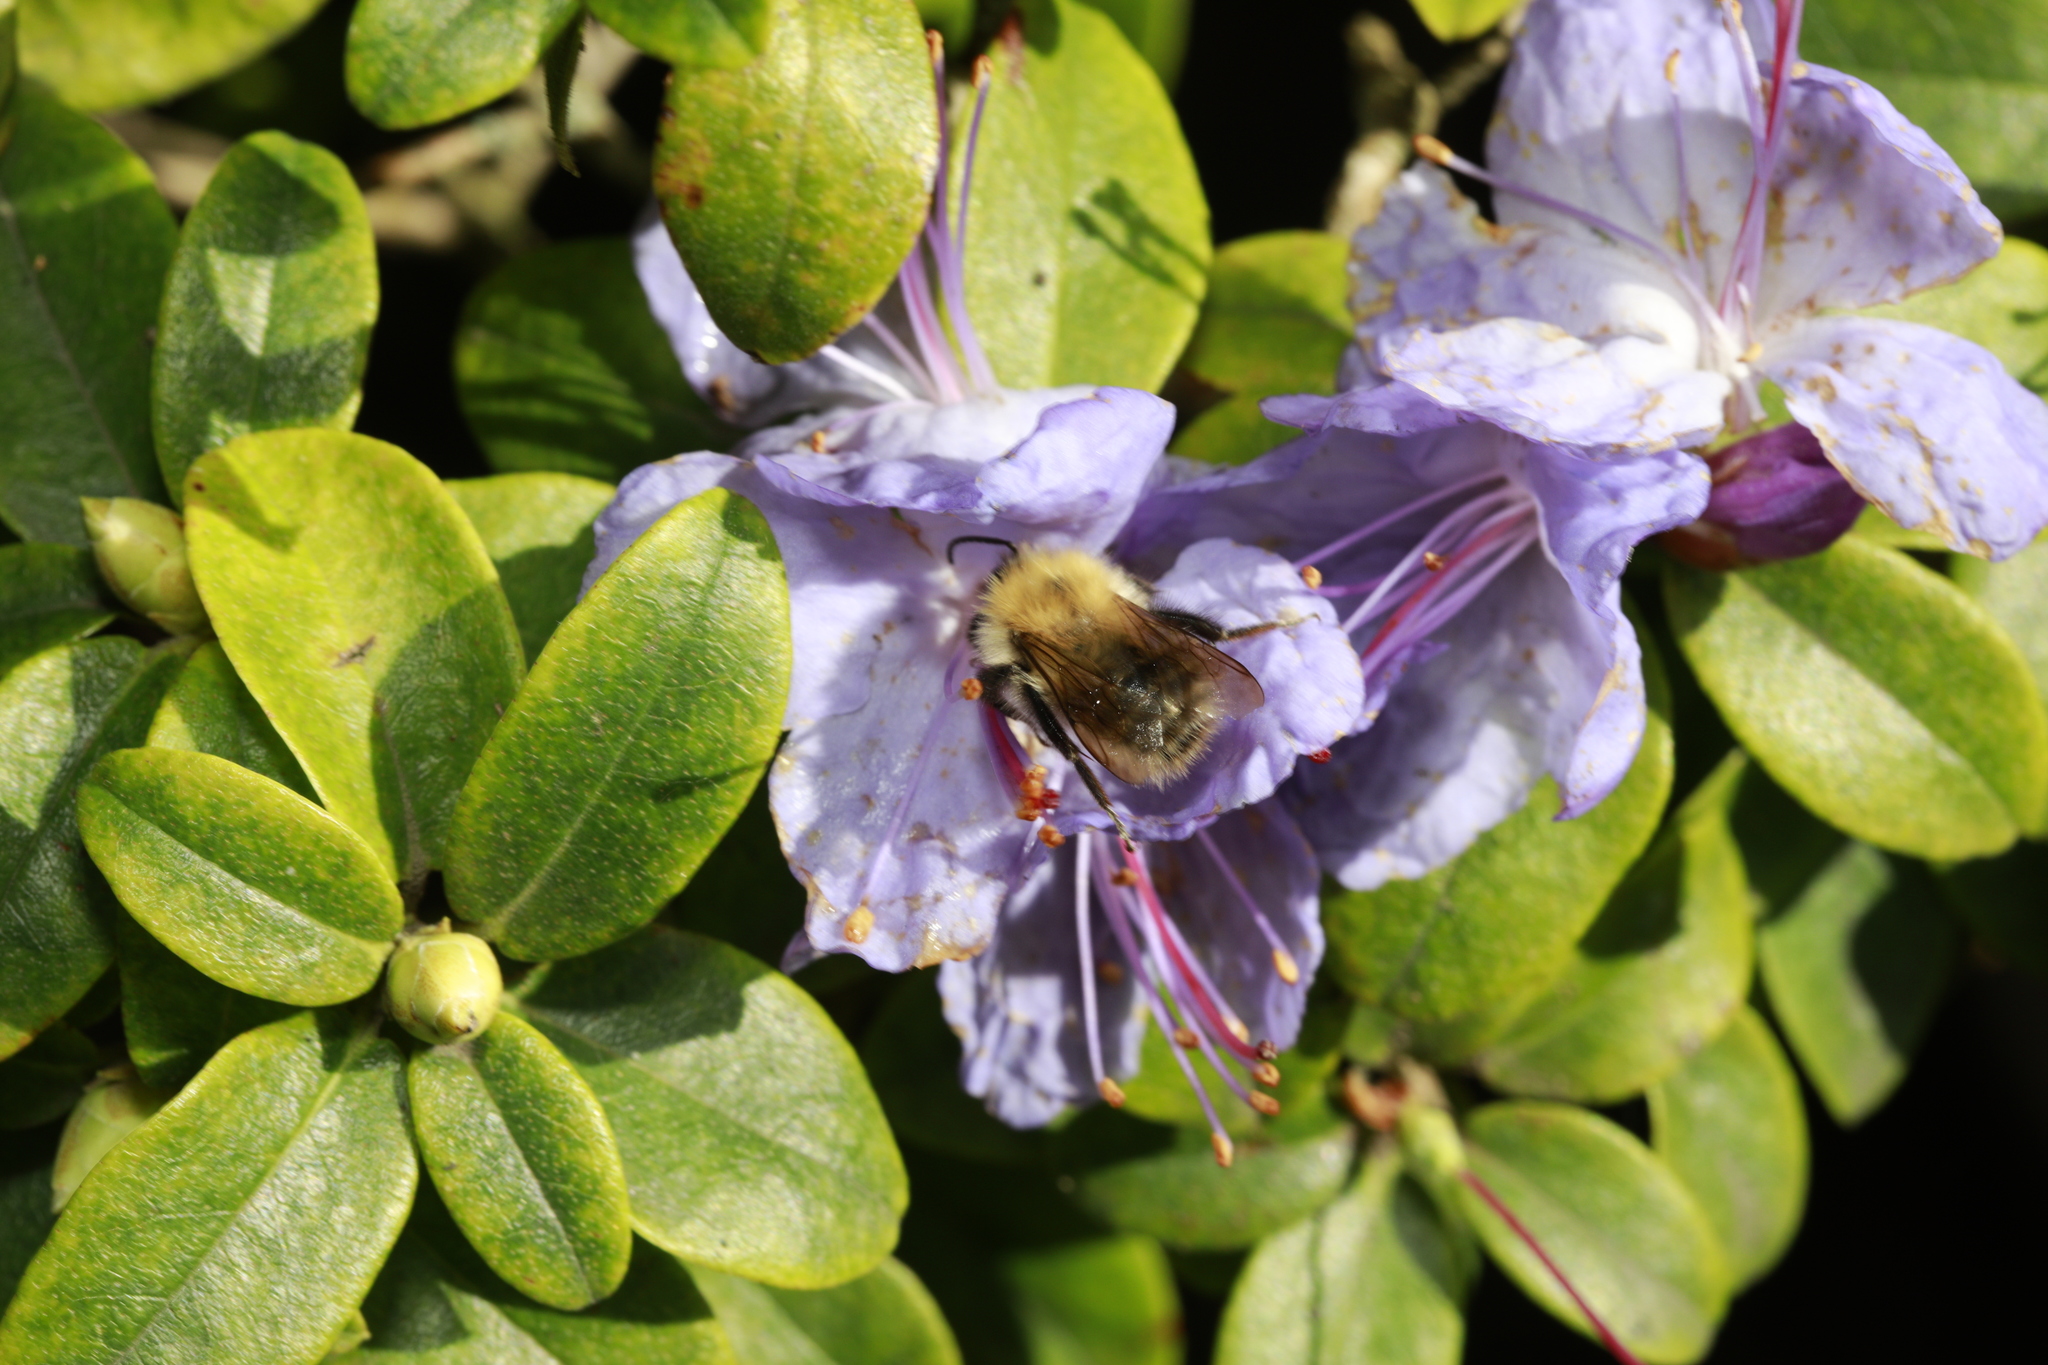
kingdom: Animalia
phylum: Arthropoda
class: Insecta
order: Hymenoptera
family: Apidae
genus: Bombus
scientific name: Bombus pascuorum
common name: Common carder bee
